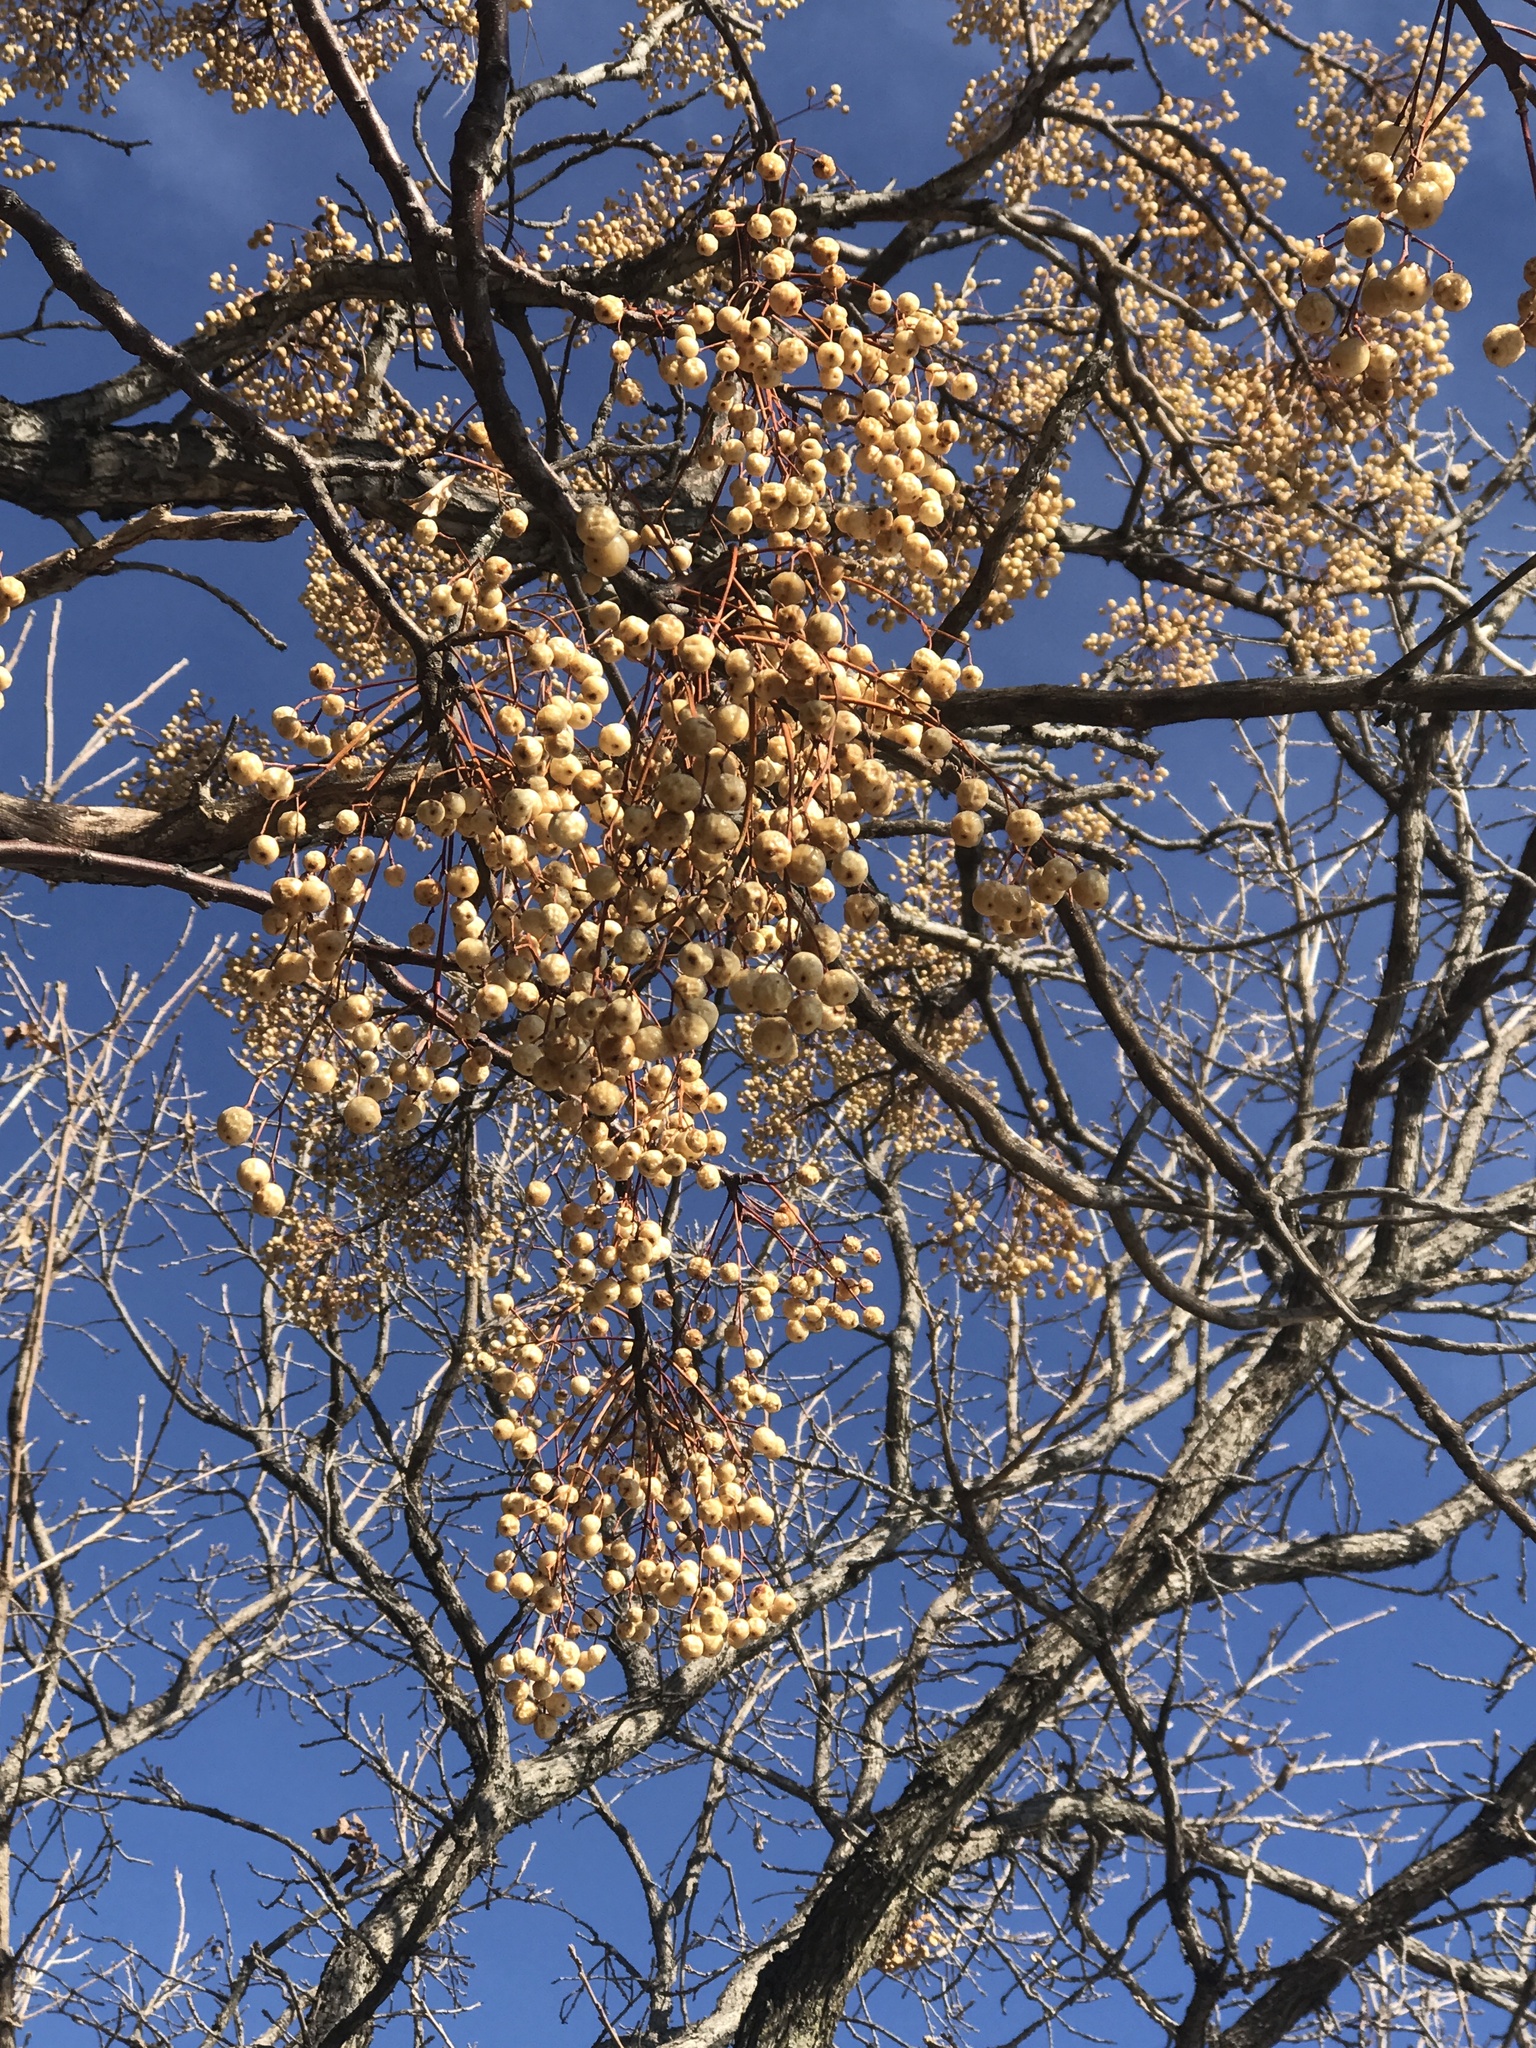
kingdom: Plantae
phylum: Tracheophyta
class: Magnoliopsida
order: Sapindales
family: Meliaceae
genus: Melia
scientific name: Melia azedarach
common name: Chinaberrytree
